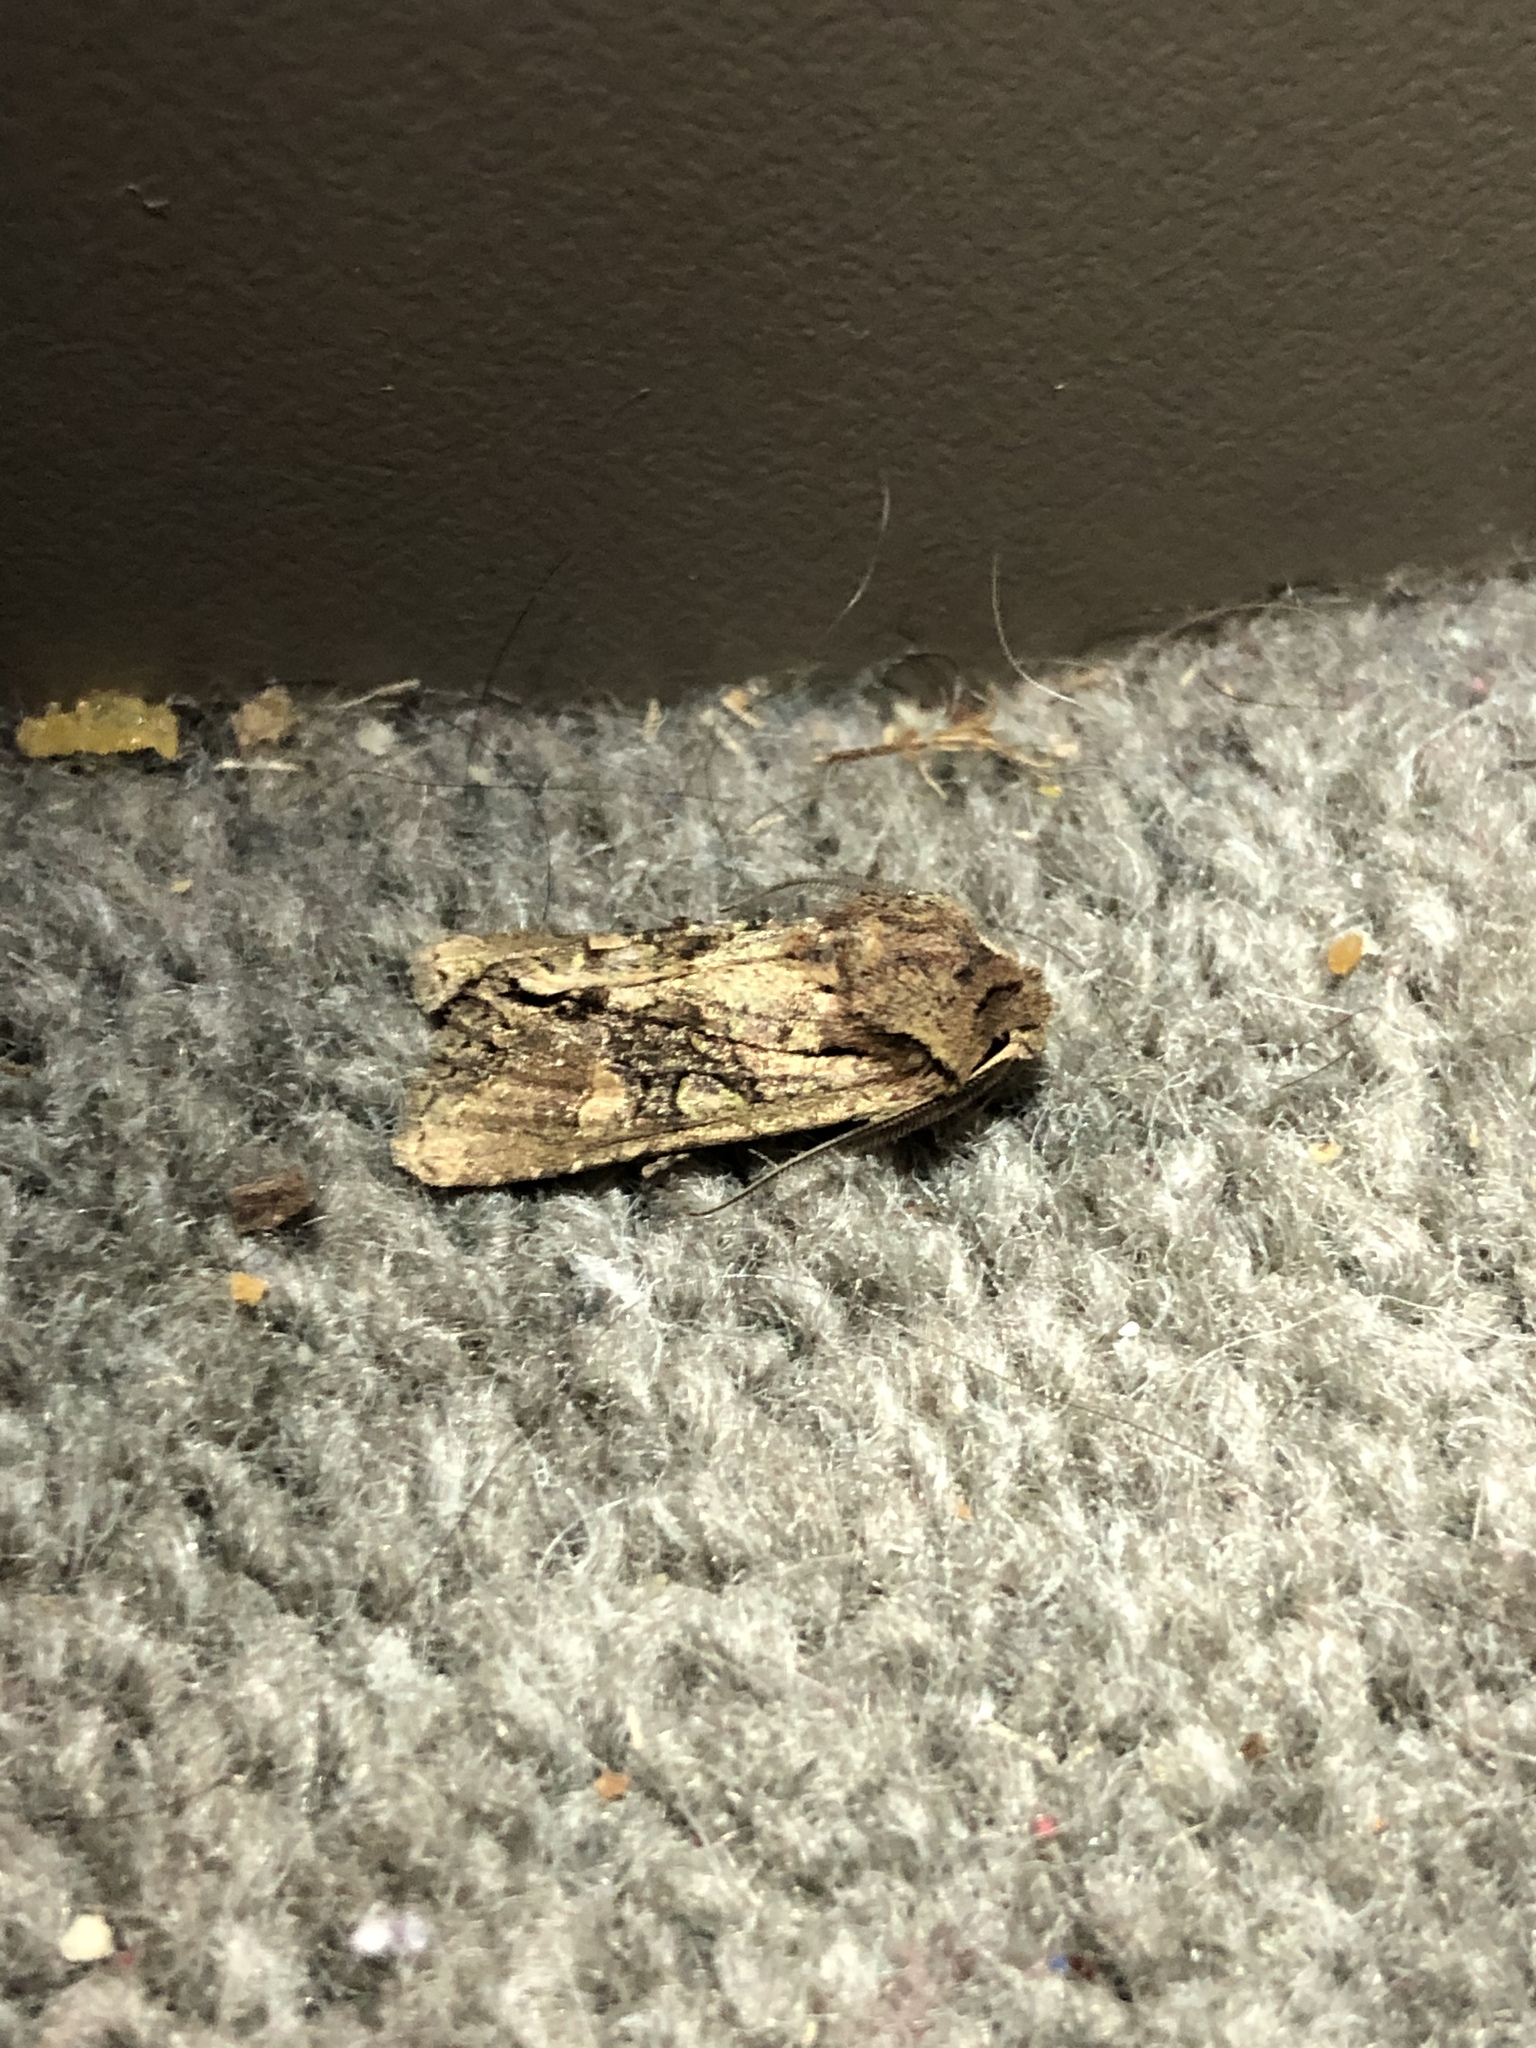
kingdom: Animalia
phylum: Arthropoda
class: Insecta
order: Lepidoptera
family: Noctuidae
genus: Ichneutica
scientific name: Ichneutica skelloni
